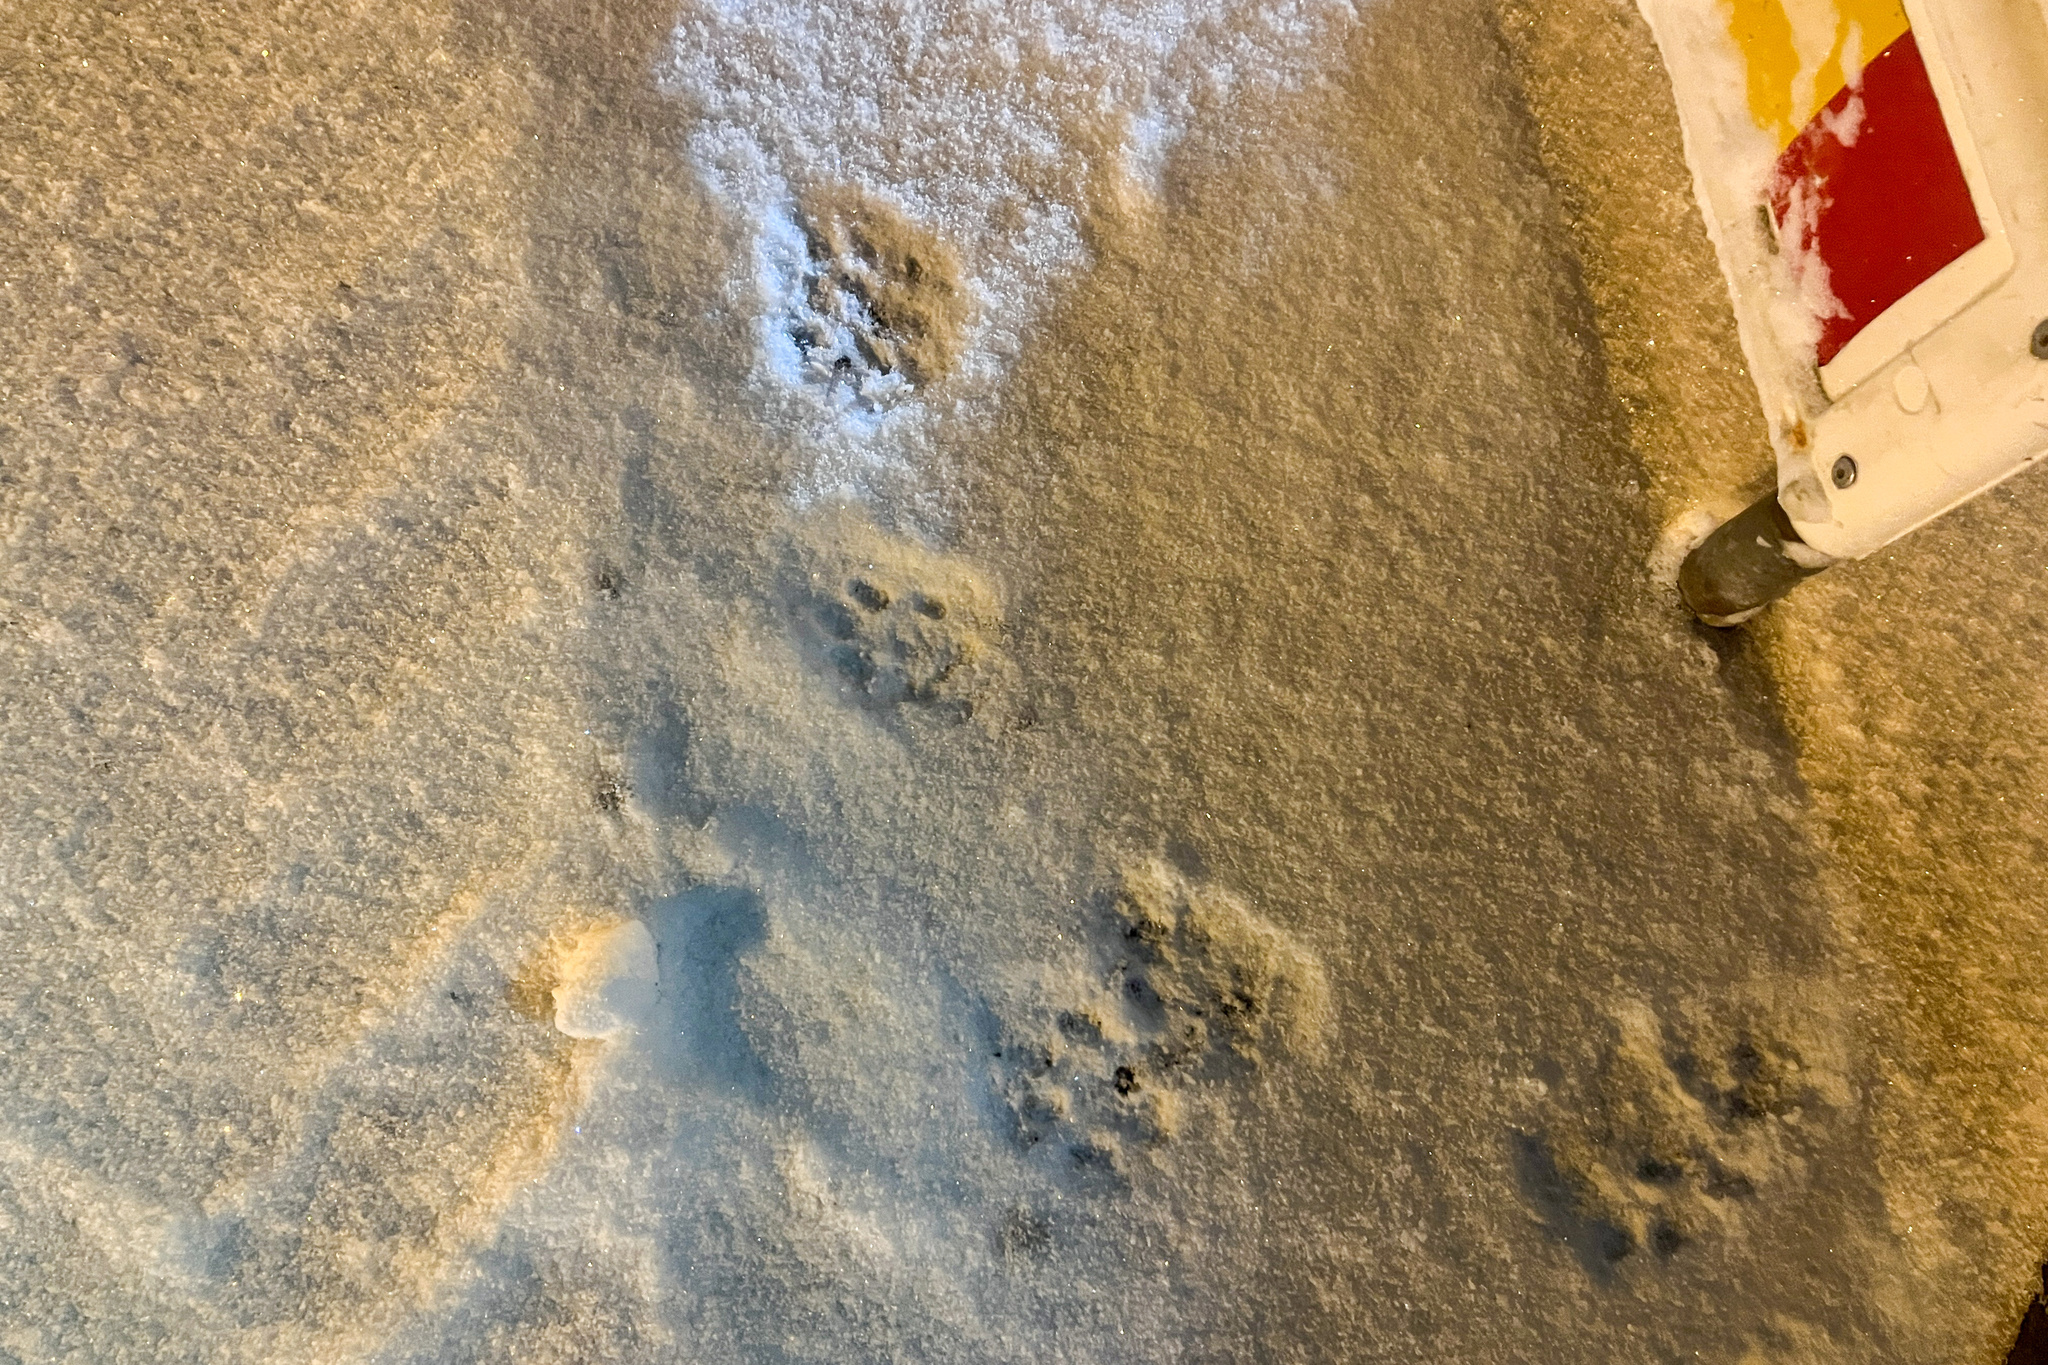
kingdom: Animalia
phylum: Chordata
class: Mammalia
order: Carnivora
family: Felidae
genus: Lynx
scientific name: Lynx lynx
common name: Eurasian lynx
